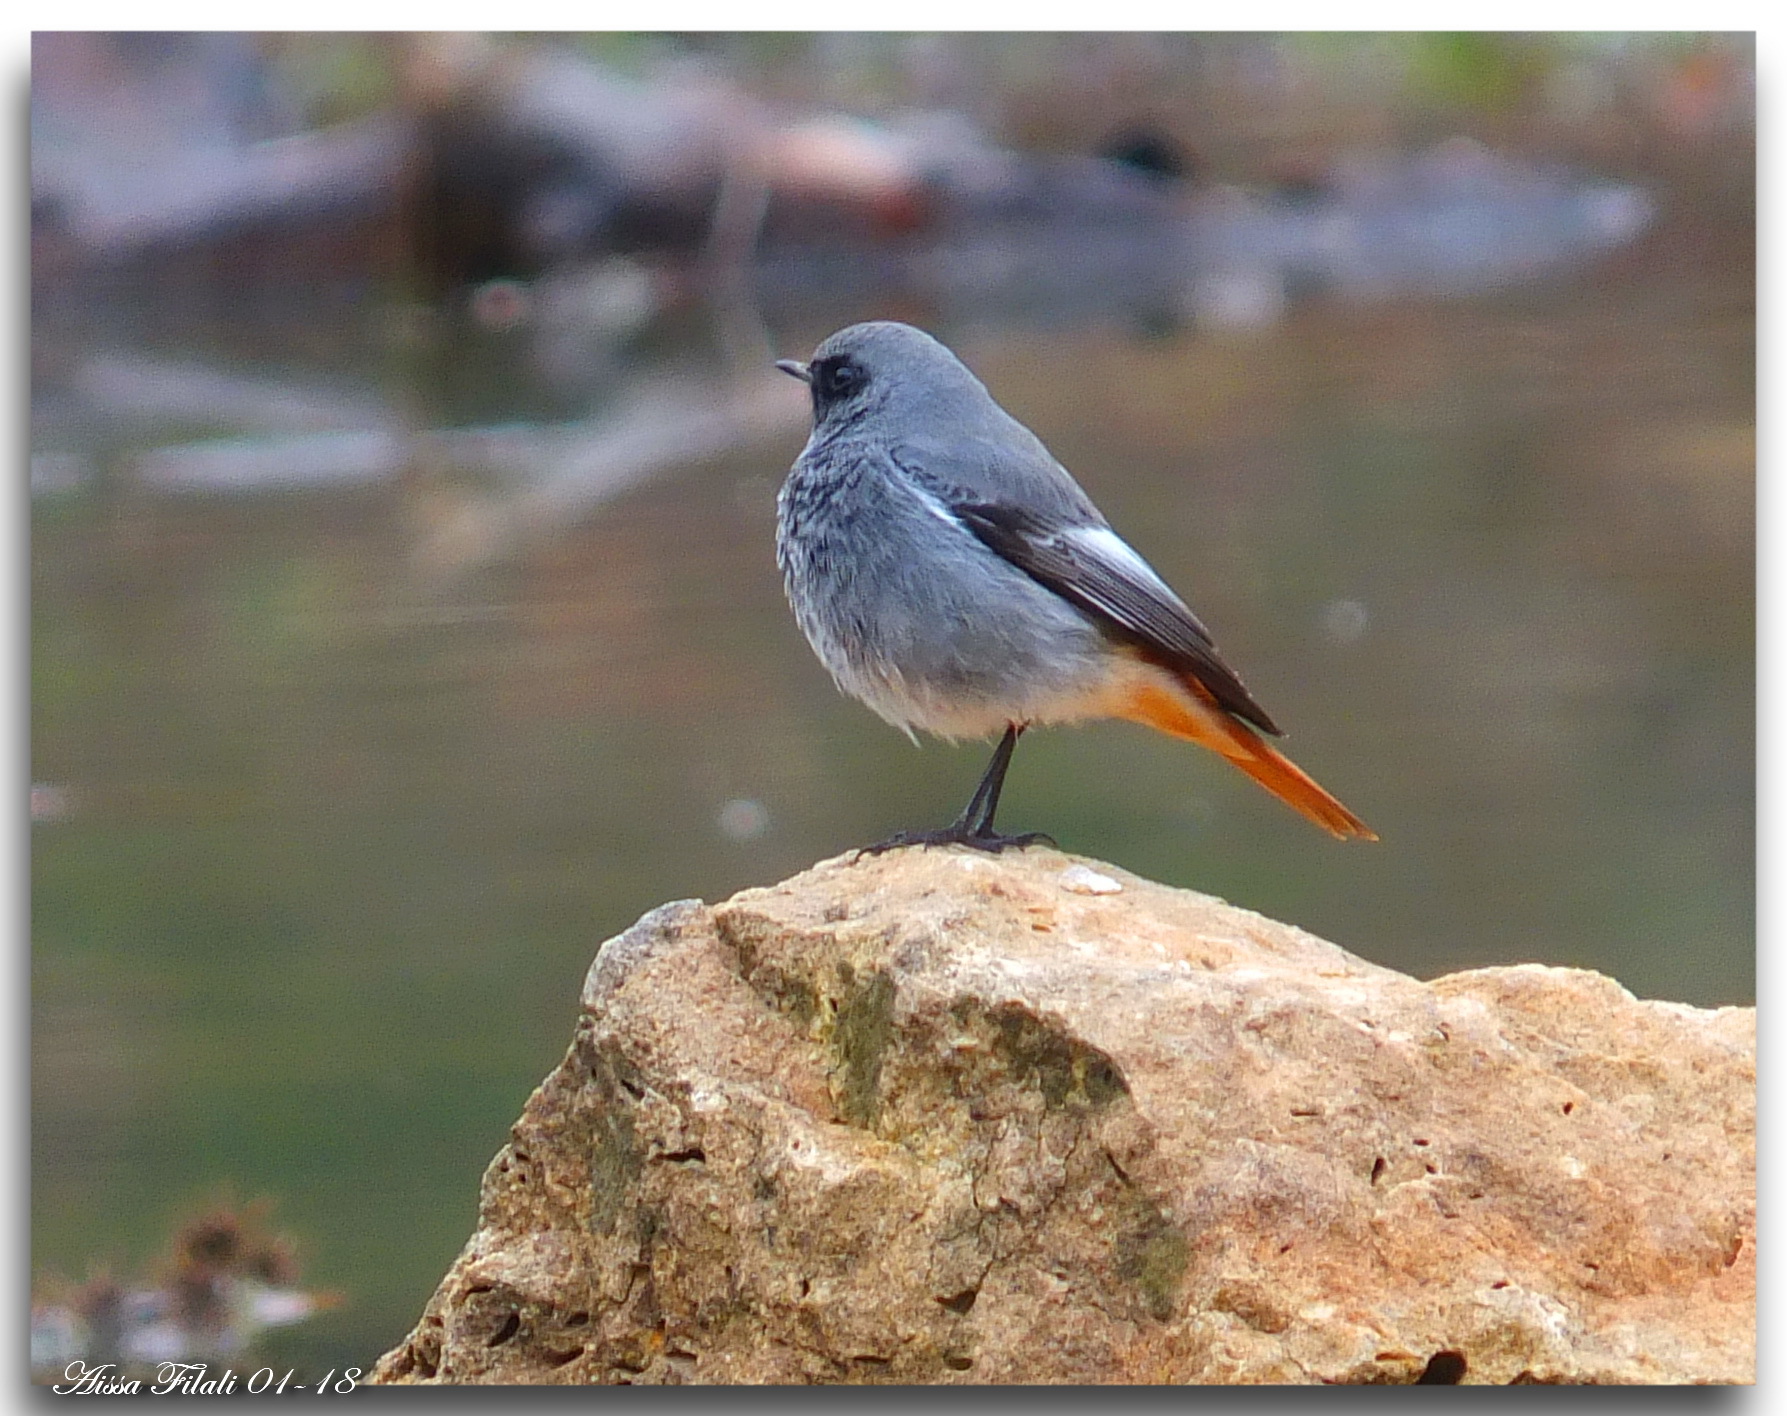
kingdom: Animalia
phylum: Chordata
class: Aves
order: Passeriformes
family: Muscicapidae
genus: Phoenicurus
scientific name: Phoenicurus ochruros
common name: Black redstart
